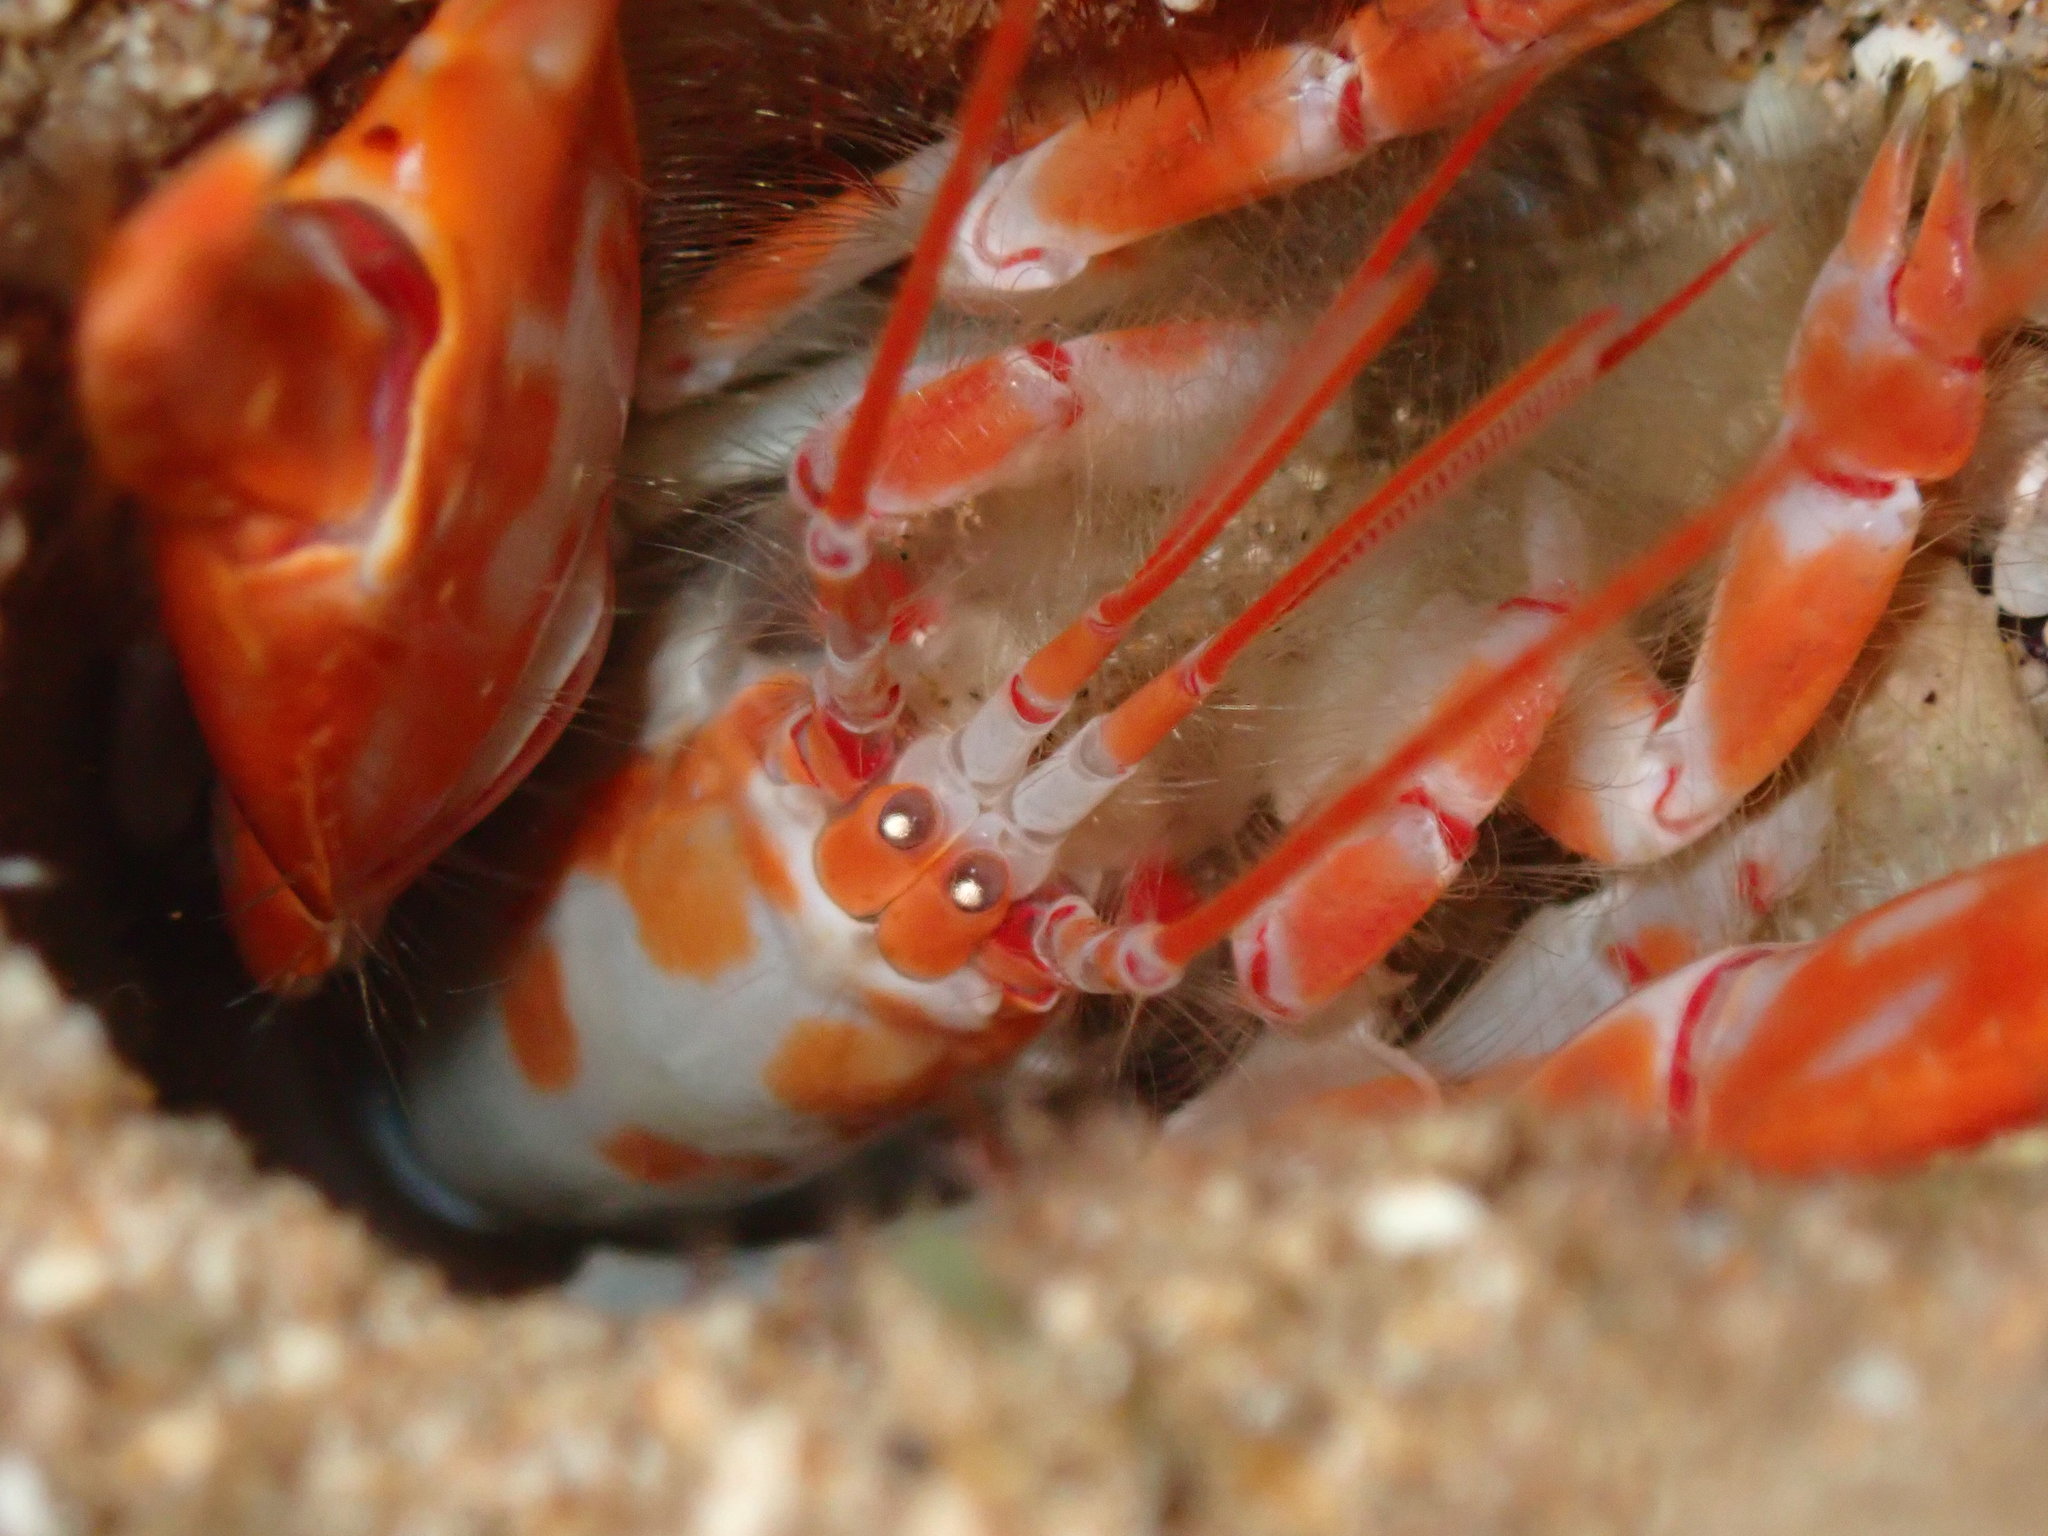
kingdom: Animalia
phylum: Arthropoda
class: Malacostraca
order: Decapoda
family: Callichiridae
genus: Corallianassa
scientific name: Corallianassa borradailei
